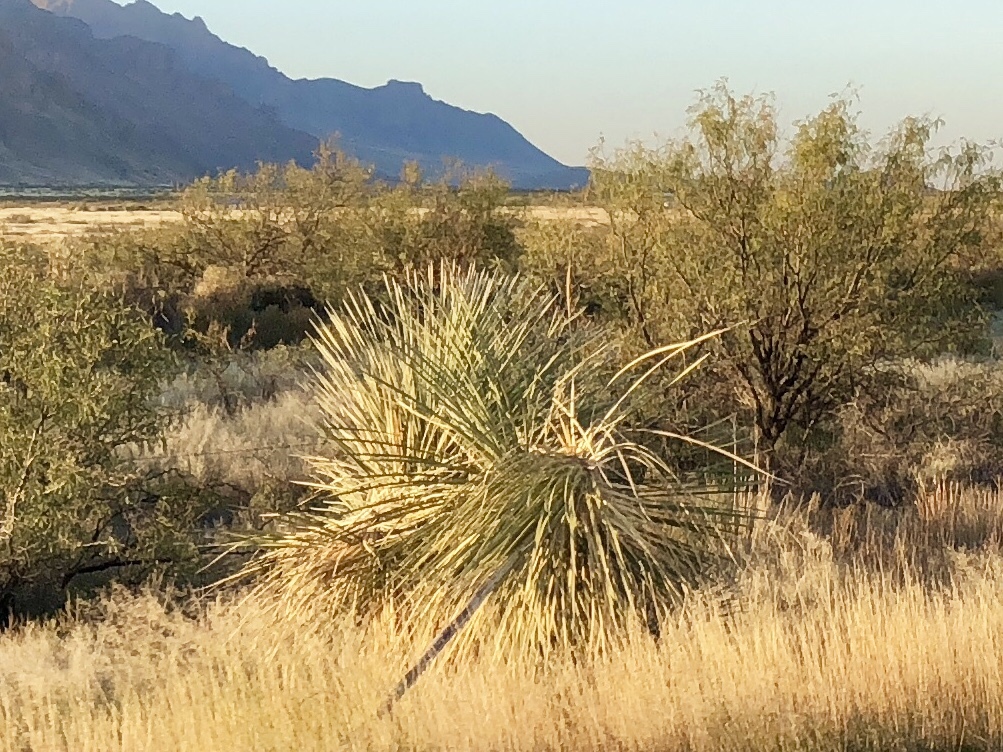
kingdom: Plantae
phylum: Tracheophyta
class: Liliopsida
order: Asparagales
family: Asparagaceae
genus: Yucca
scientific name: Yucca elata
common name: Palmella
